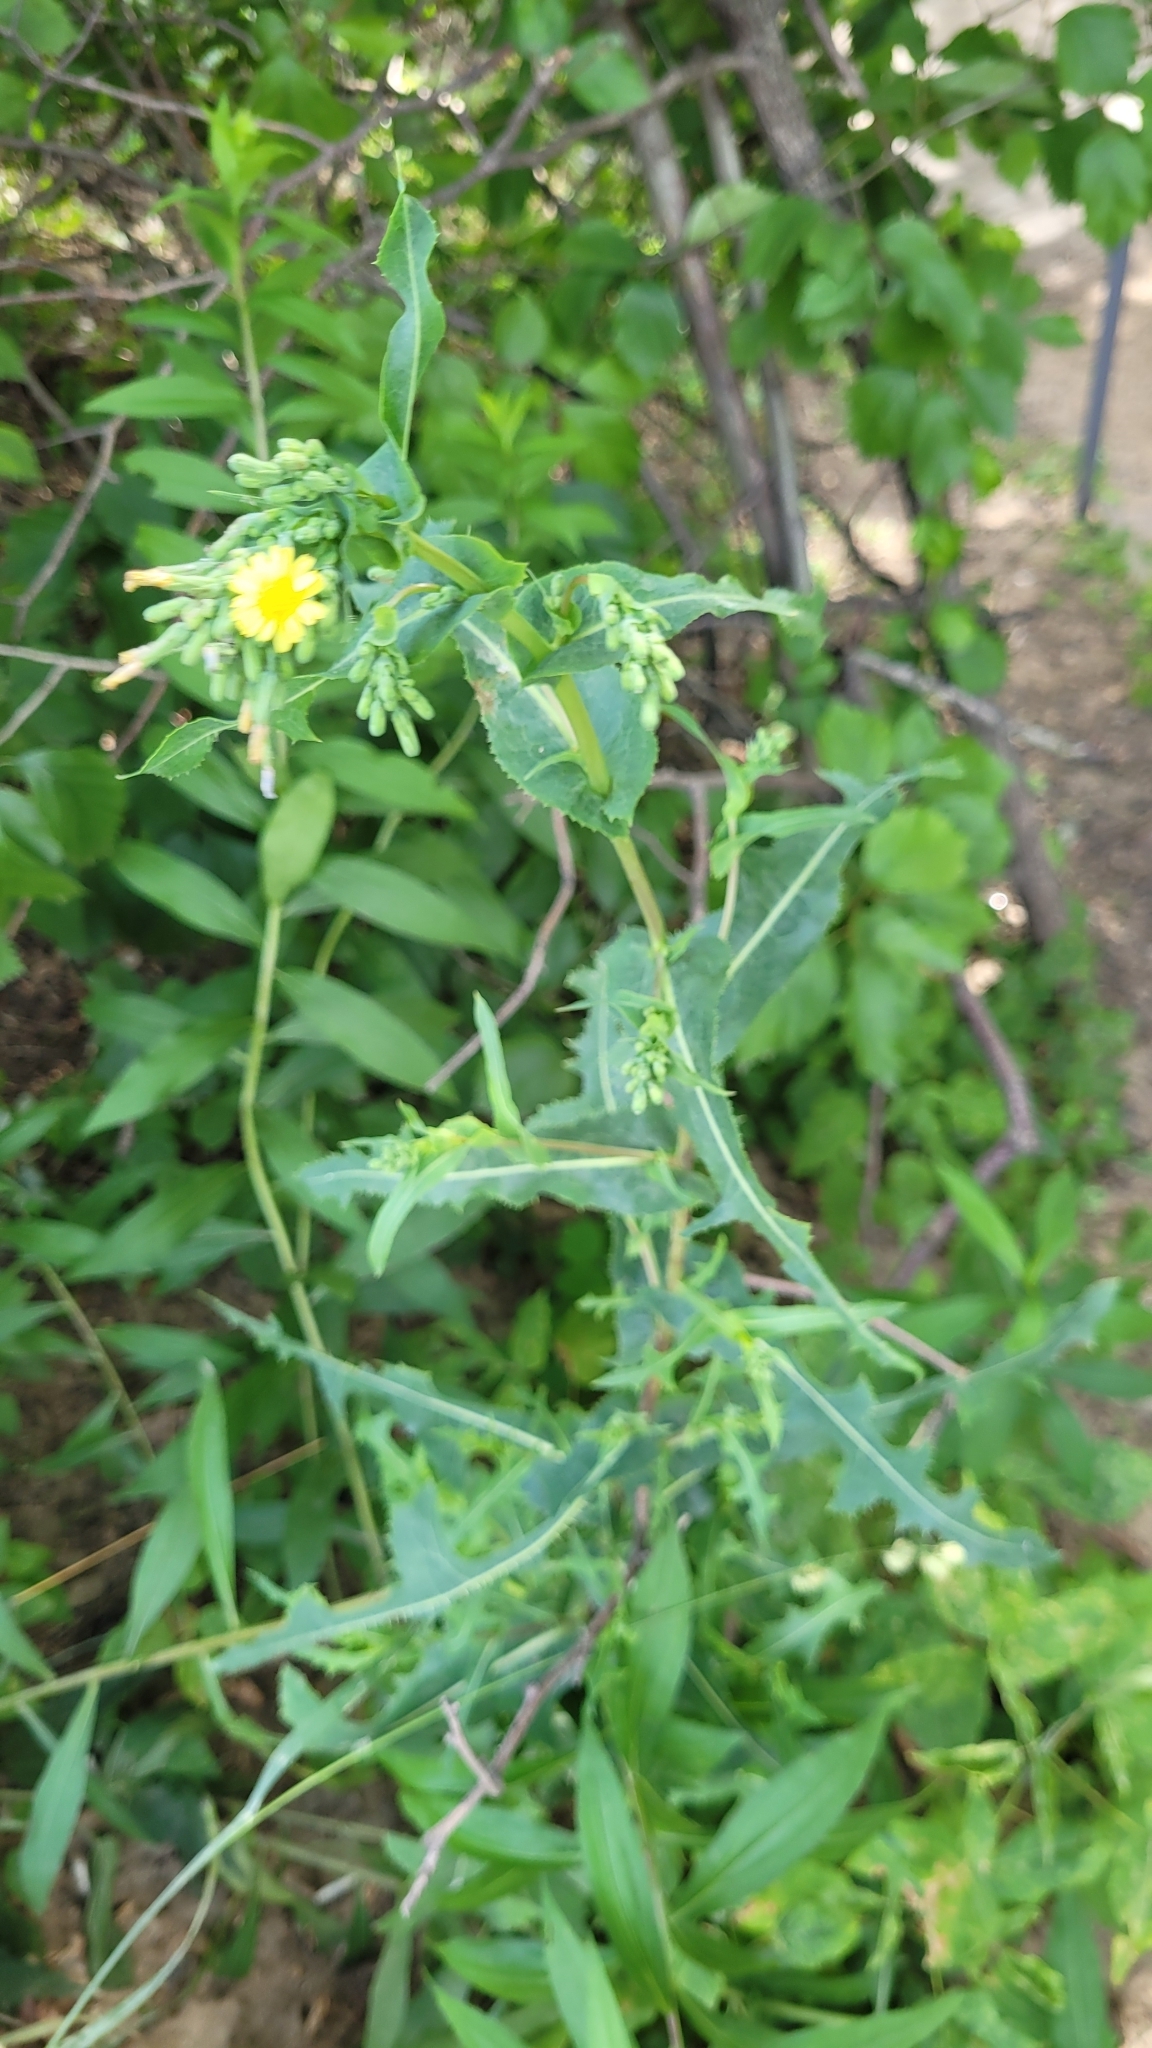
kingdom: Plantae
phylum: Tracheophyta
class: Magnoliopsida
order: Asterales
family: Asteraceae
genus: Lactuca
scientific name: Lactuca serriola
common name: Prickly lettuce
